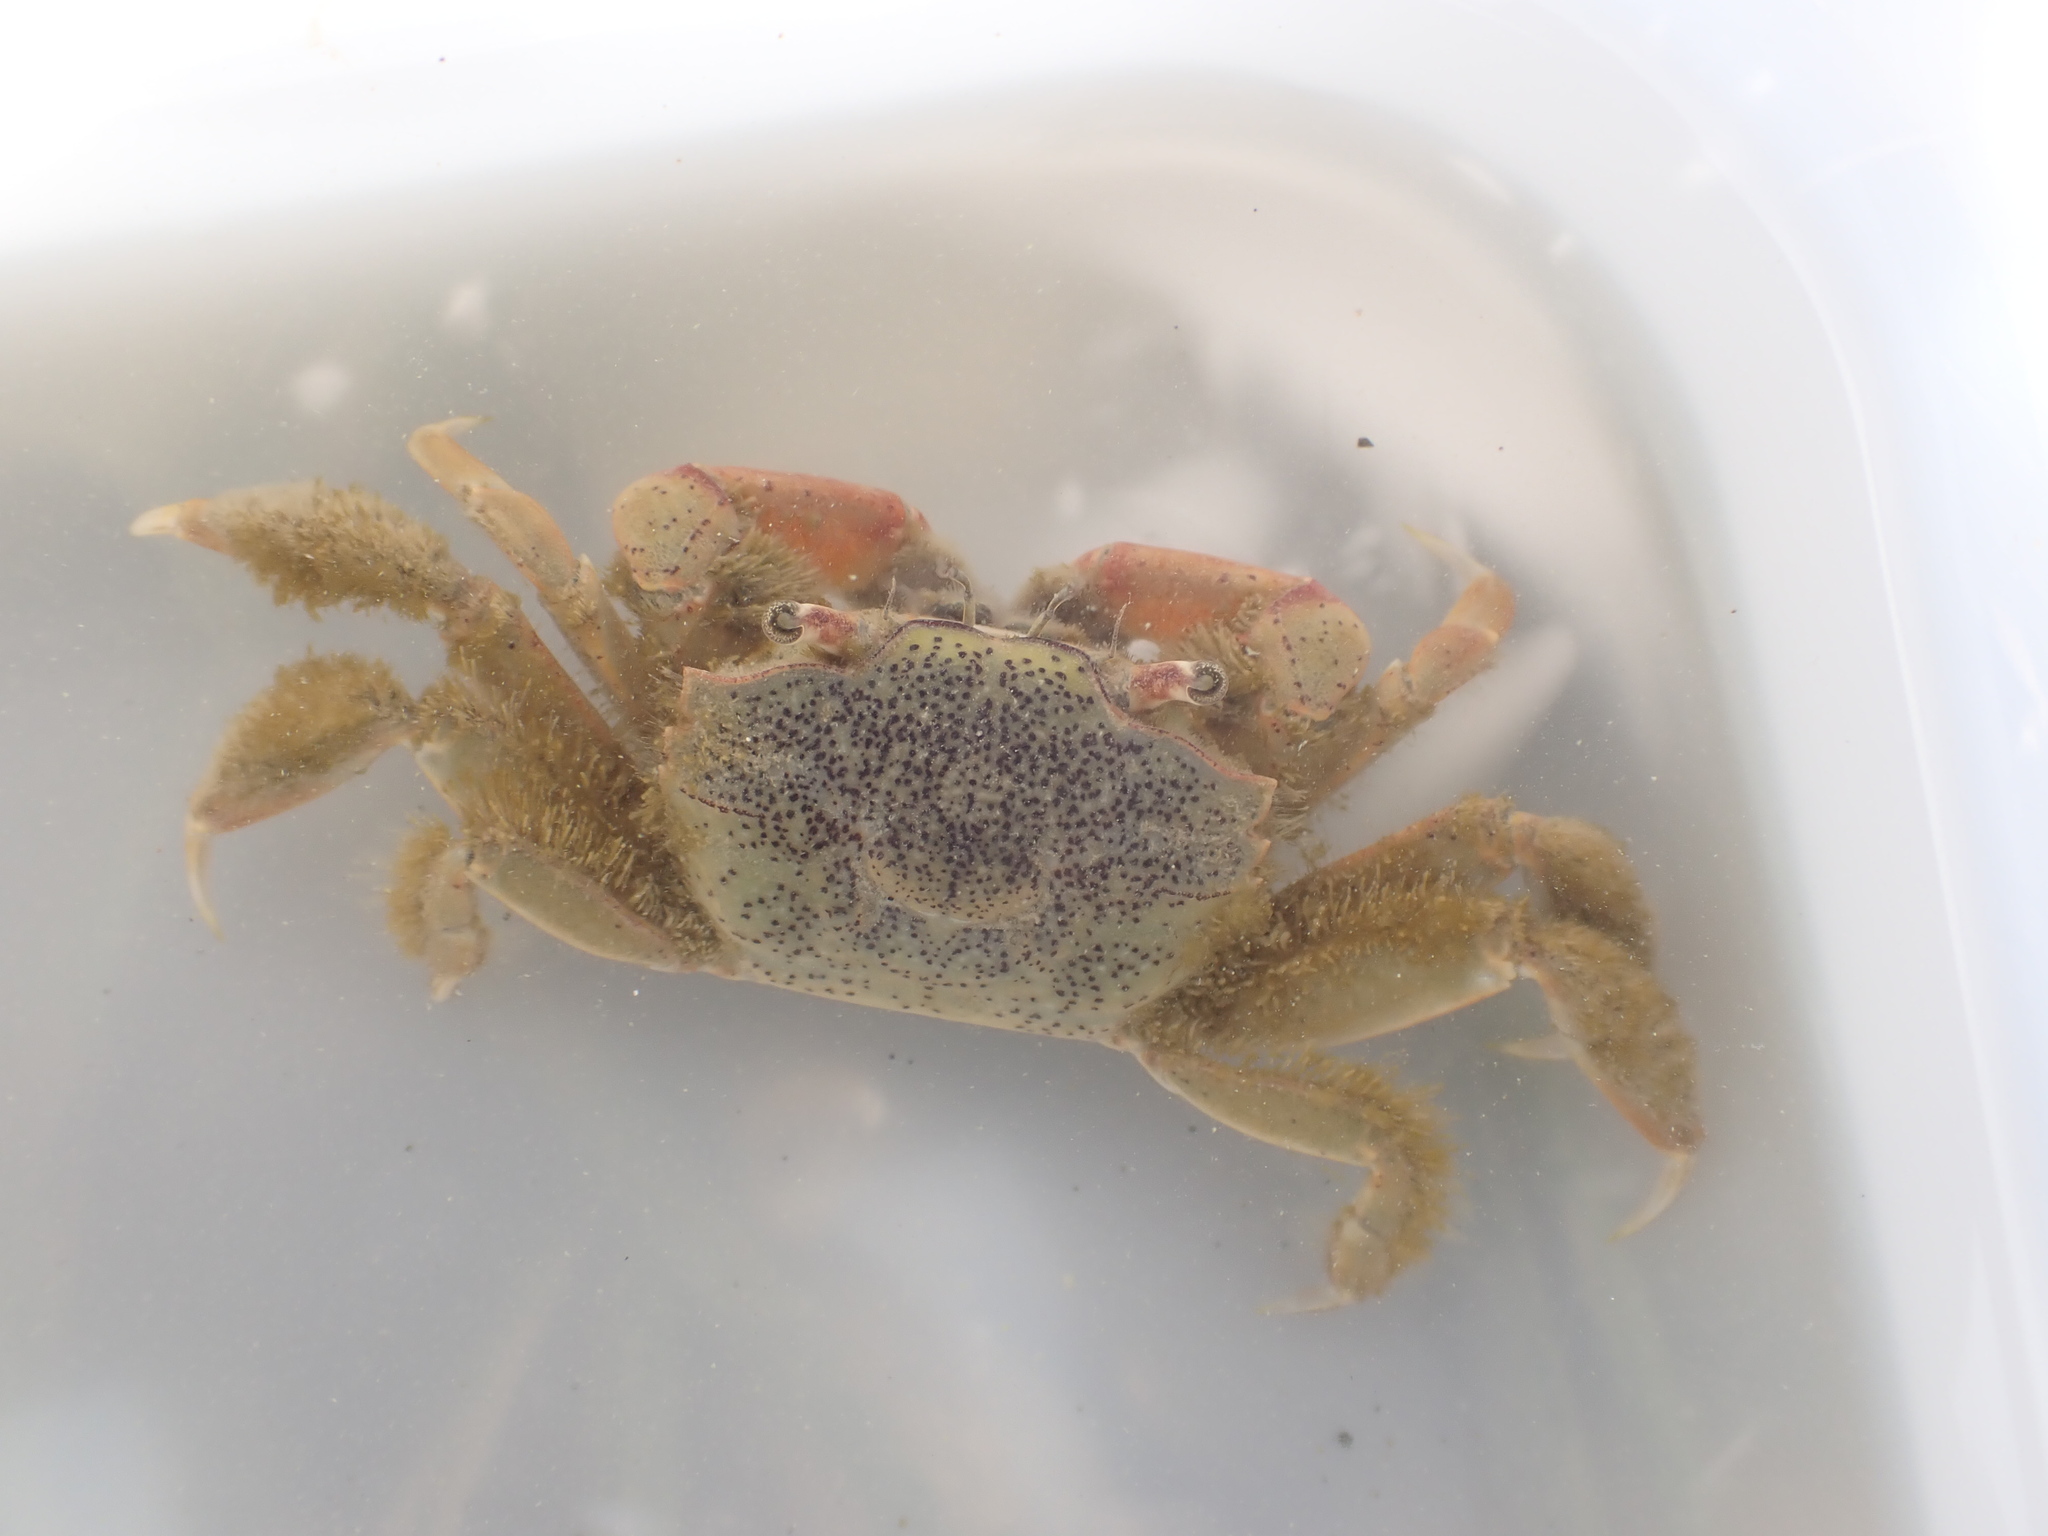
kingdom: Animalia
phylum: Arthropoda
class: Malacostraca
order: Decapoda
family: Macrophthalmidae
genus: Hemiplax
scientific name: Hemiplax hirtipes
